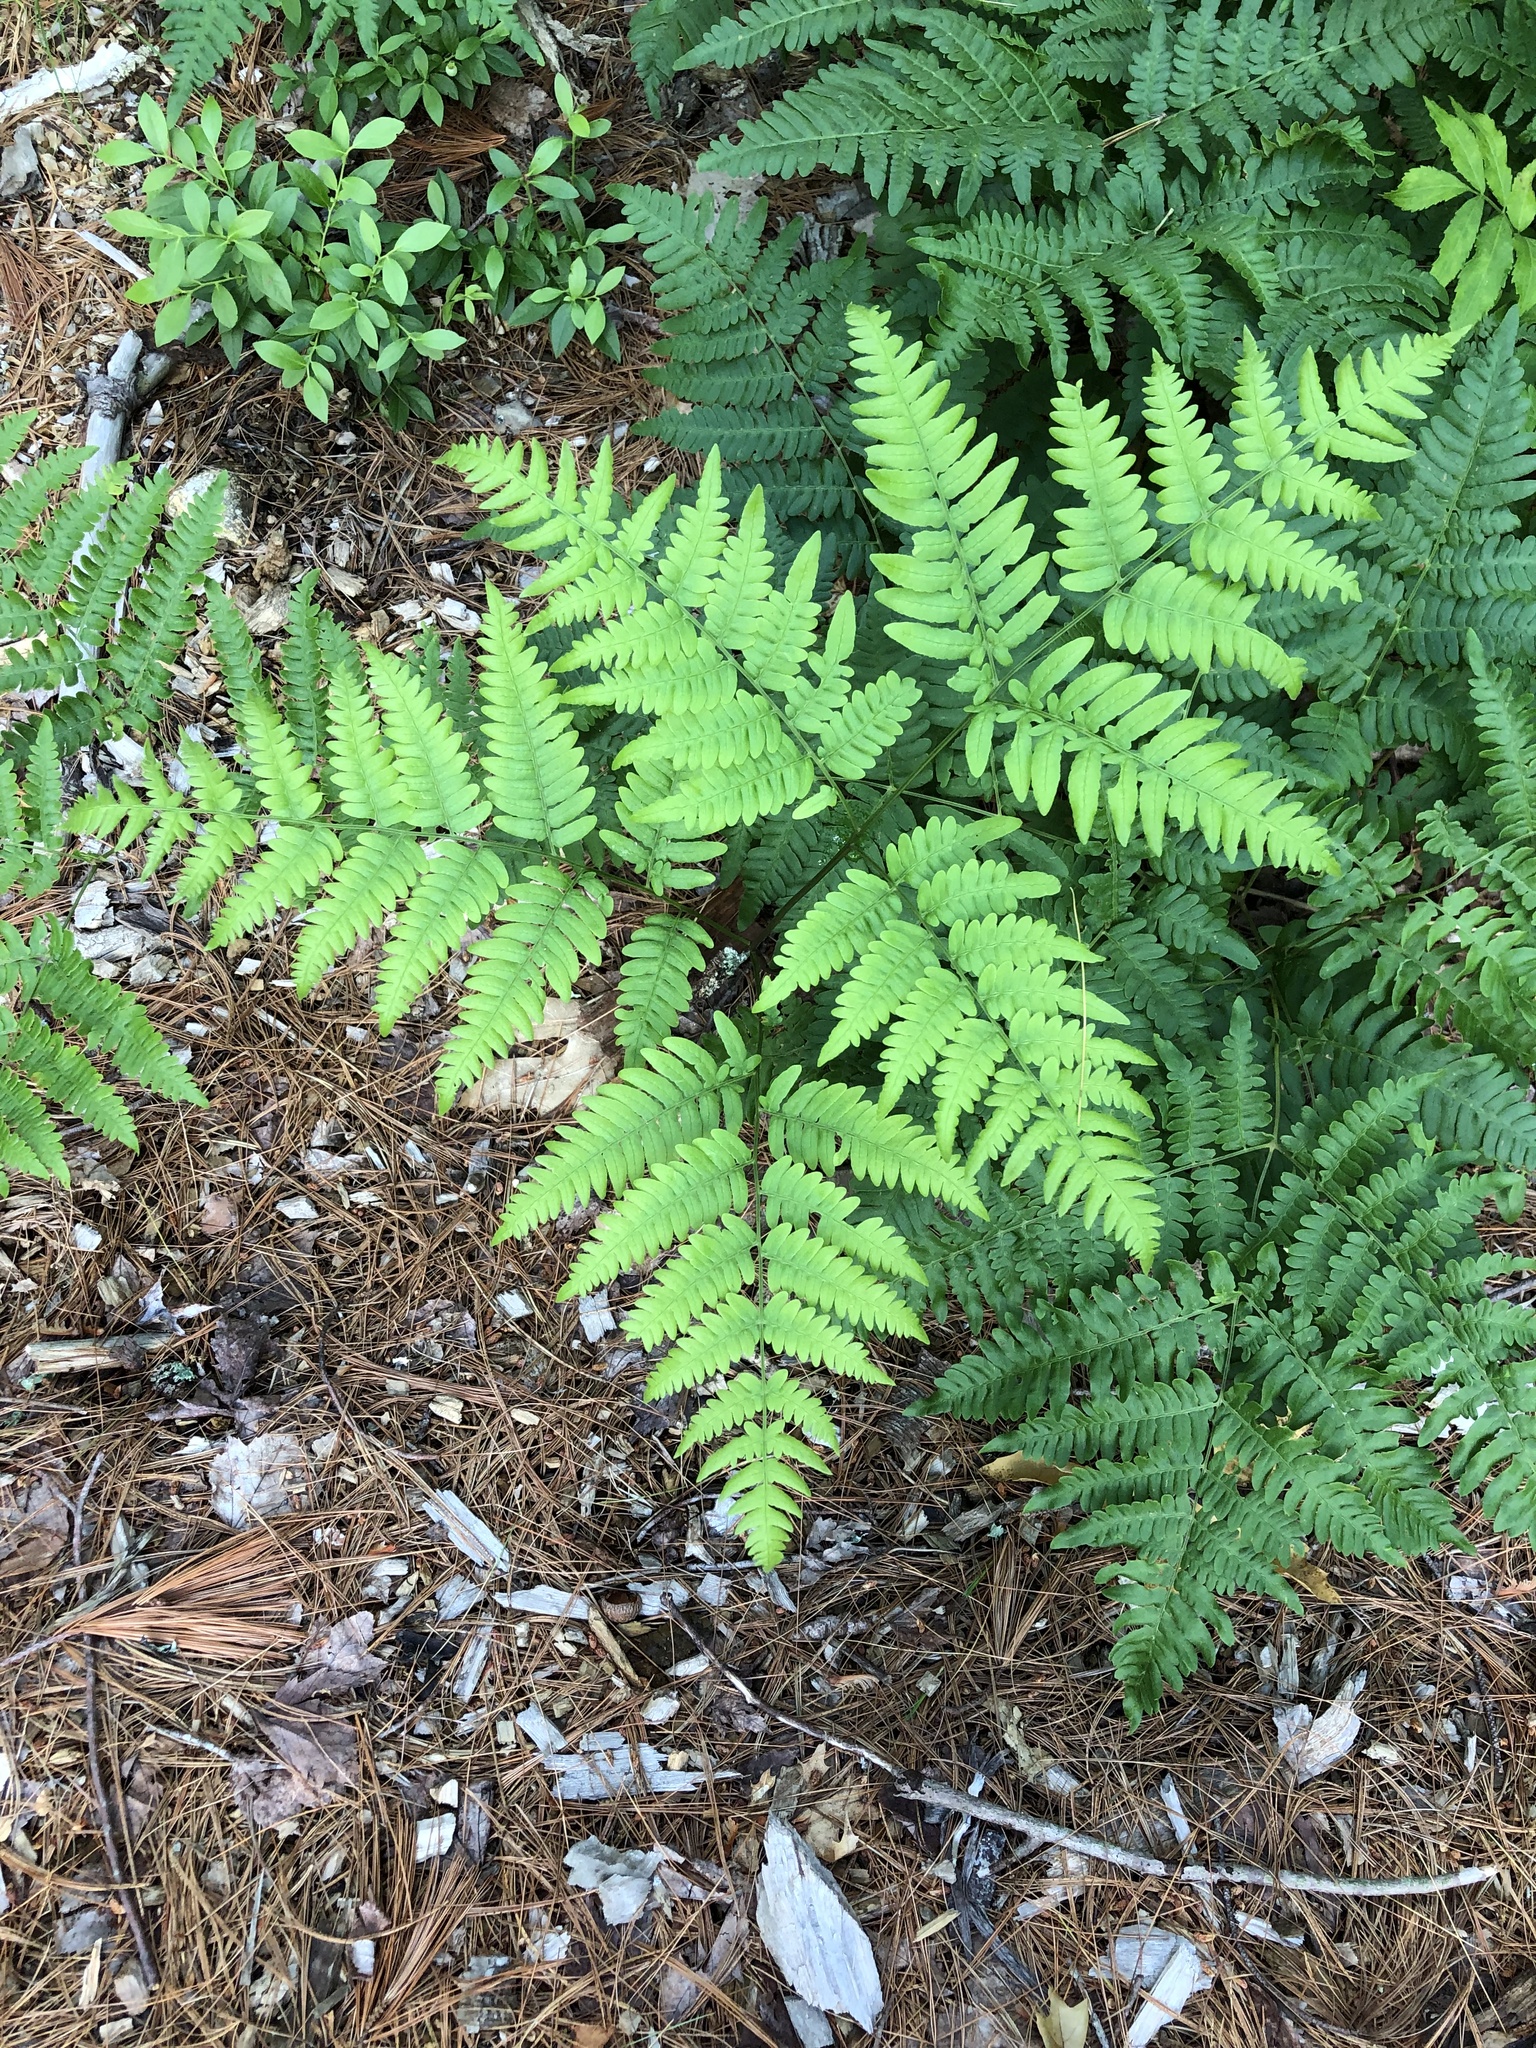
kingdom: Plantae
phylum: Tracheophyta
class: Polypodiopsida
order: Polypodiales
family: Dennstaedtiaceae
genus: Pteridium
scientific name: Pteridium aquilinum
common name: Bracken
